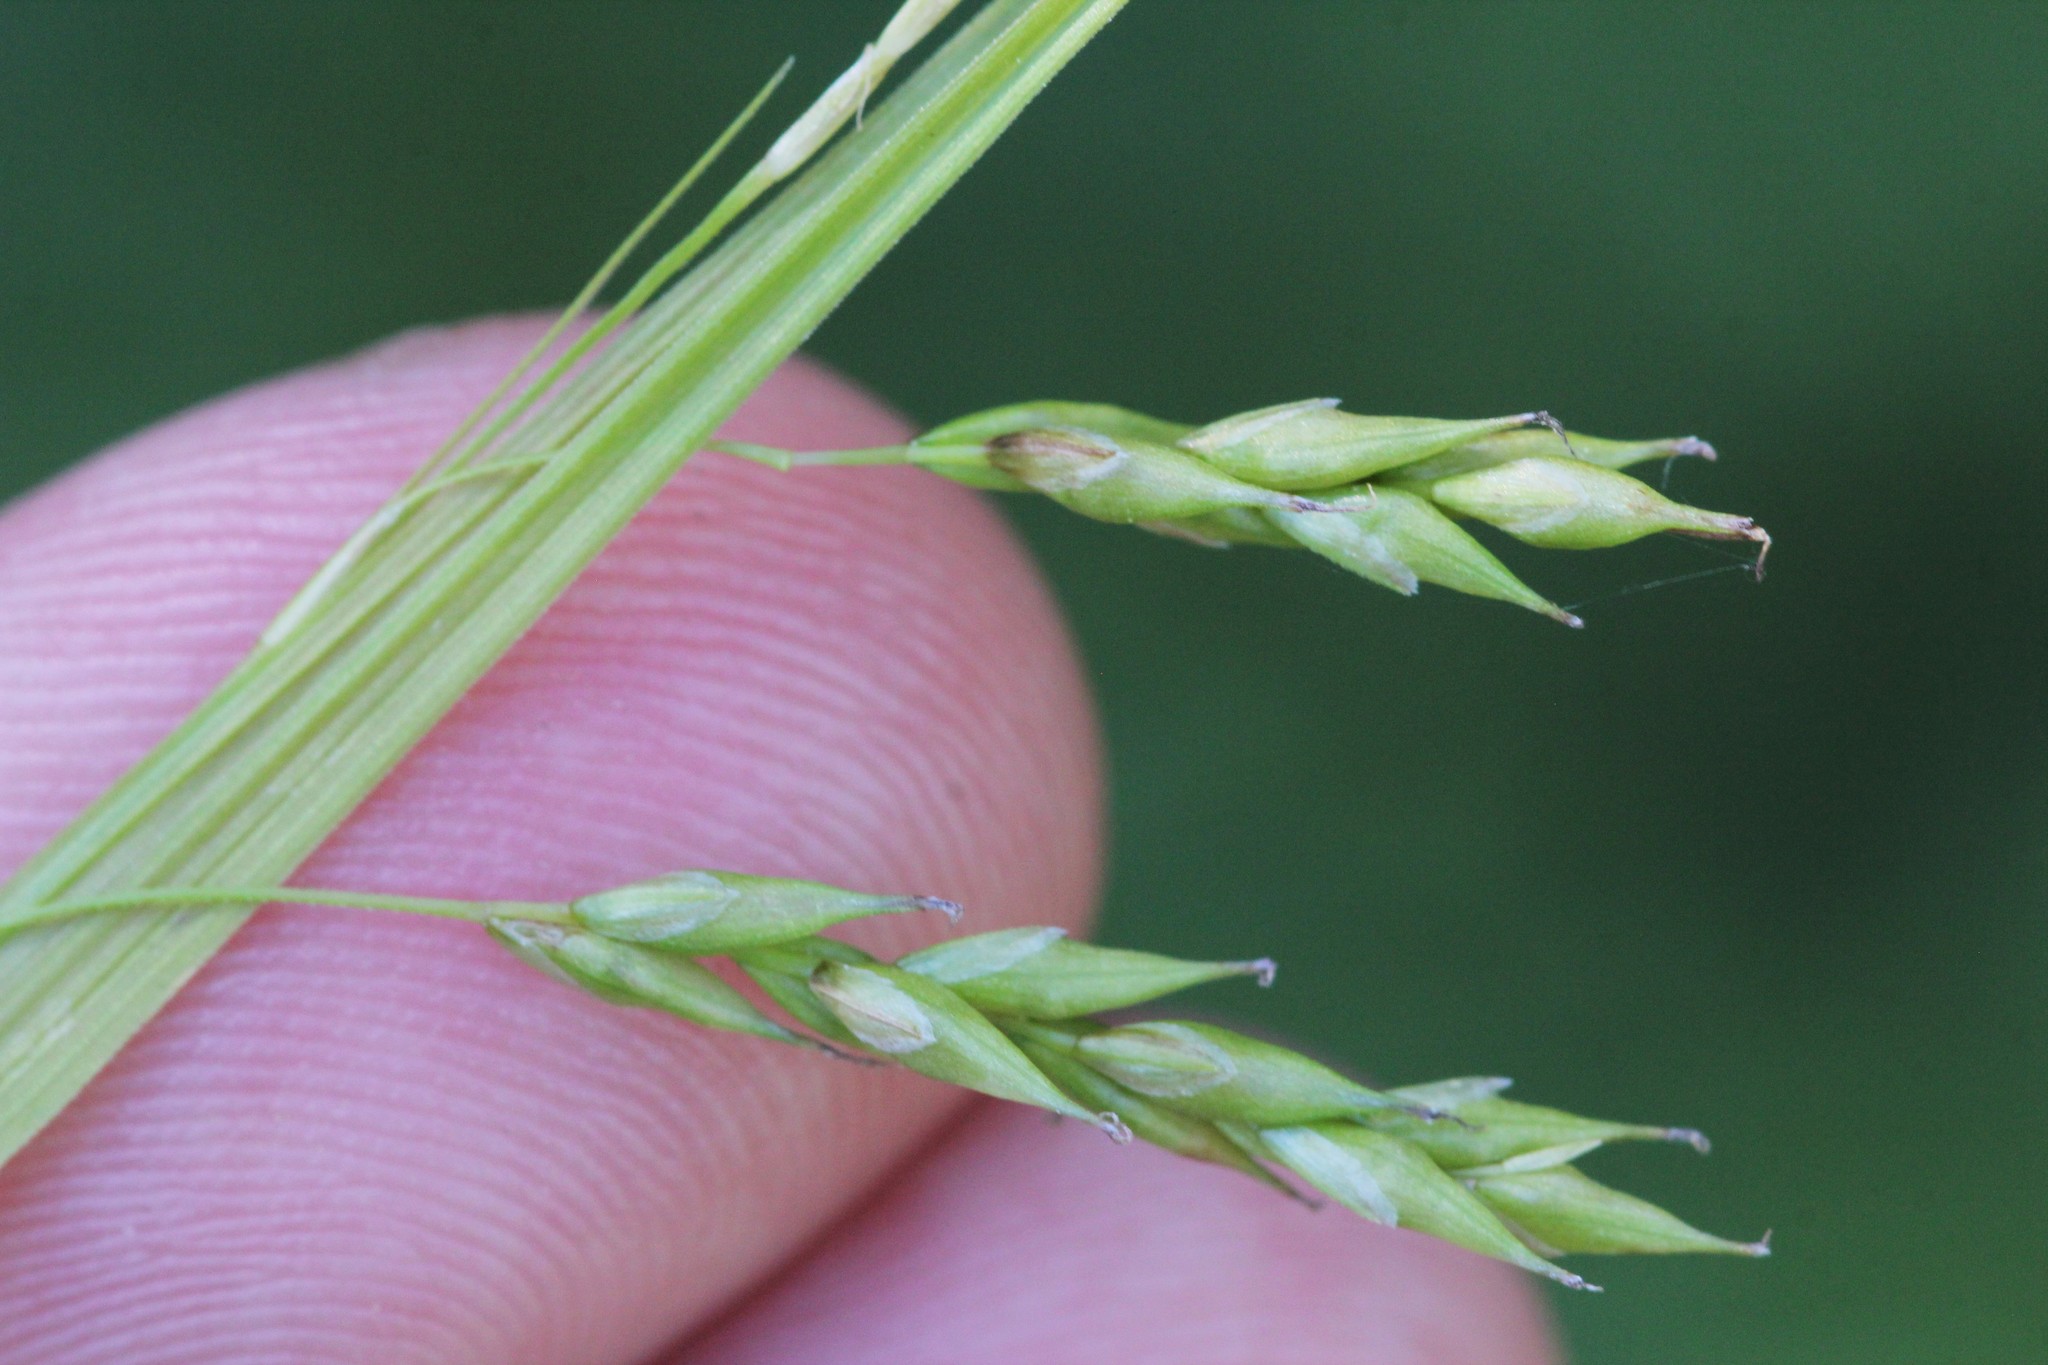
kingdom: Plantae
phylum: Tracheophyta
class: Liliopsida
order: Poales
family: Cyperaceae
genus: Carex
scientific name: Carex debilis
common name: White-edge sedge
